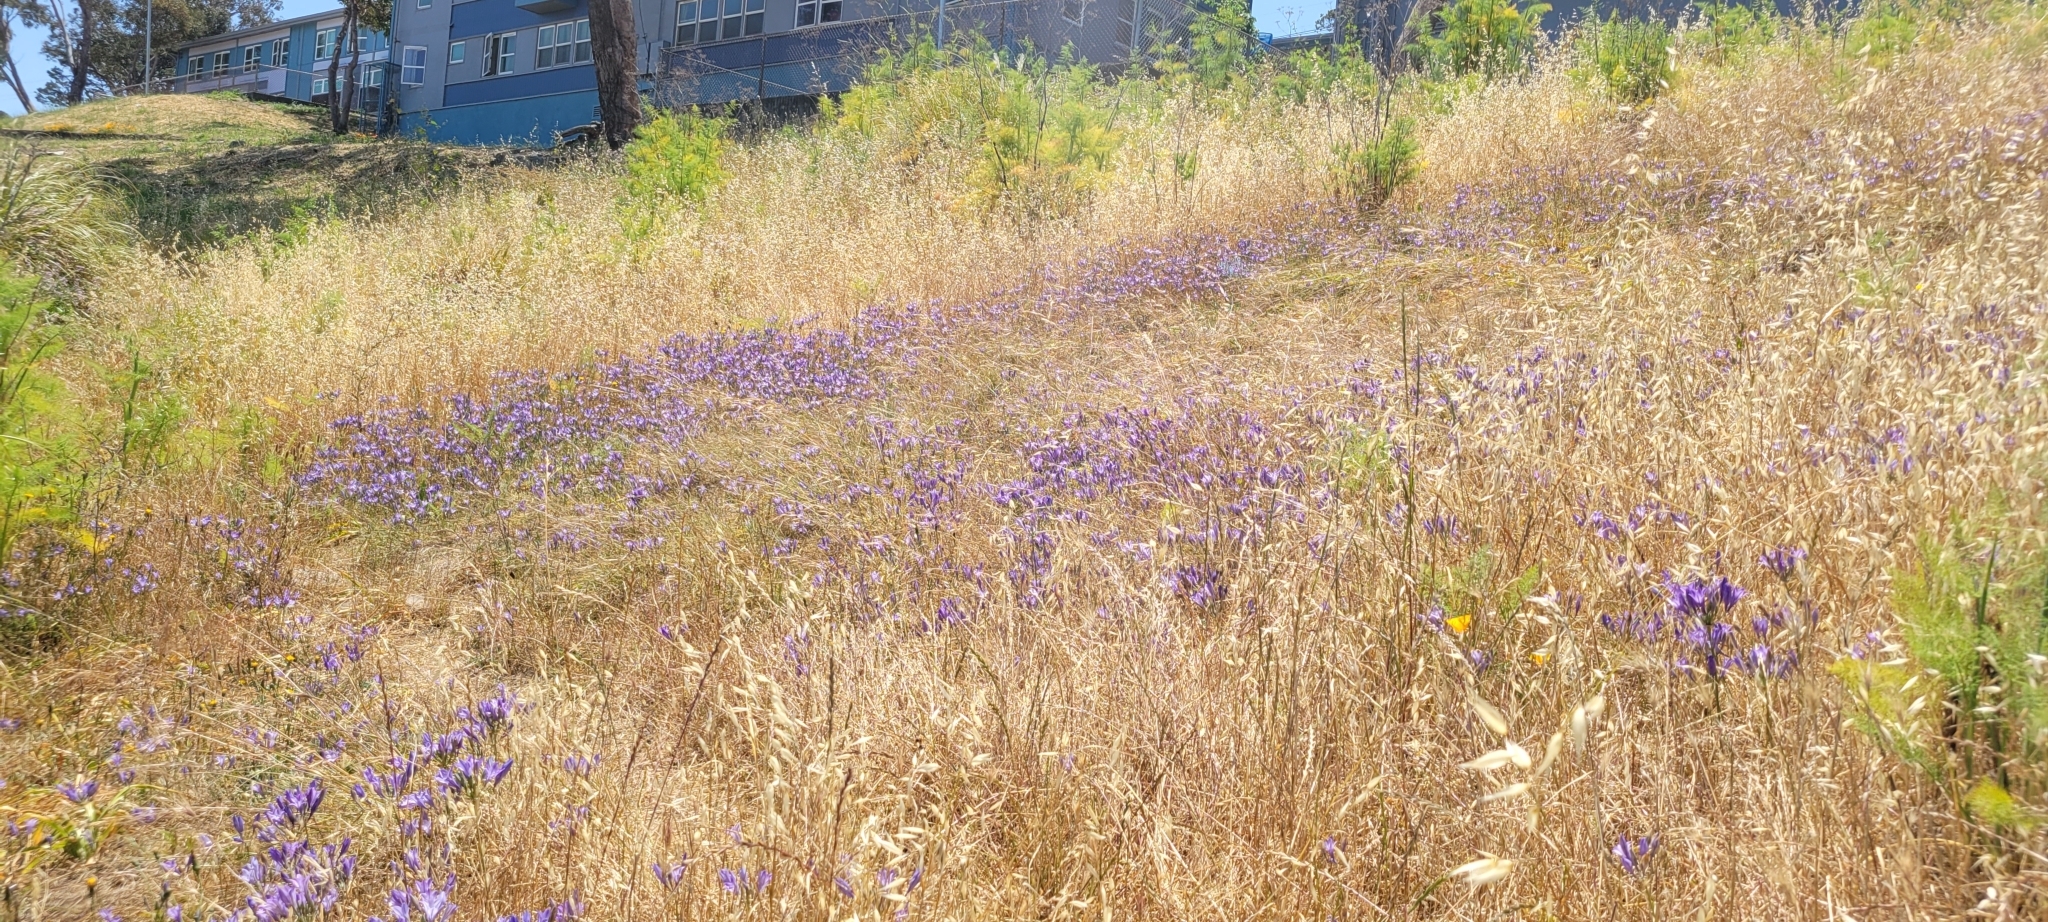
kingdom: Plantae
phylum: Tracheophyta
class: Liliopsida
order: Asparagales
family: Asparagaceae
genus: Triteleia
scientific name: Triteleia laxa
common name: Triplet-lily
